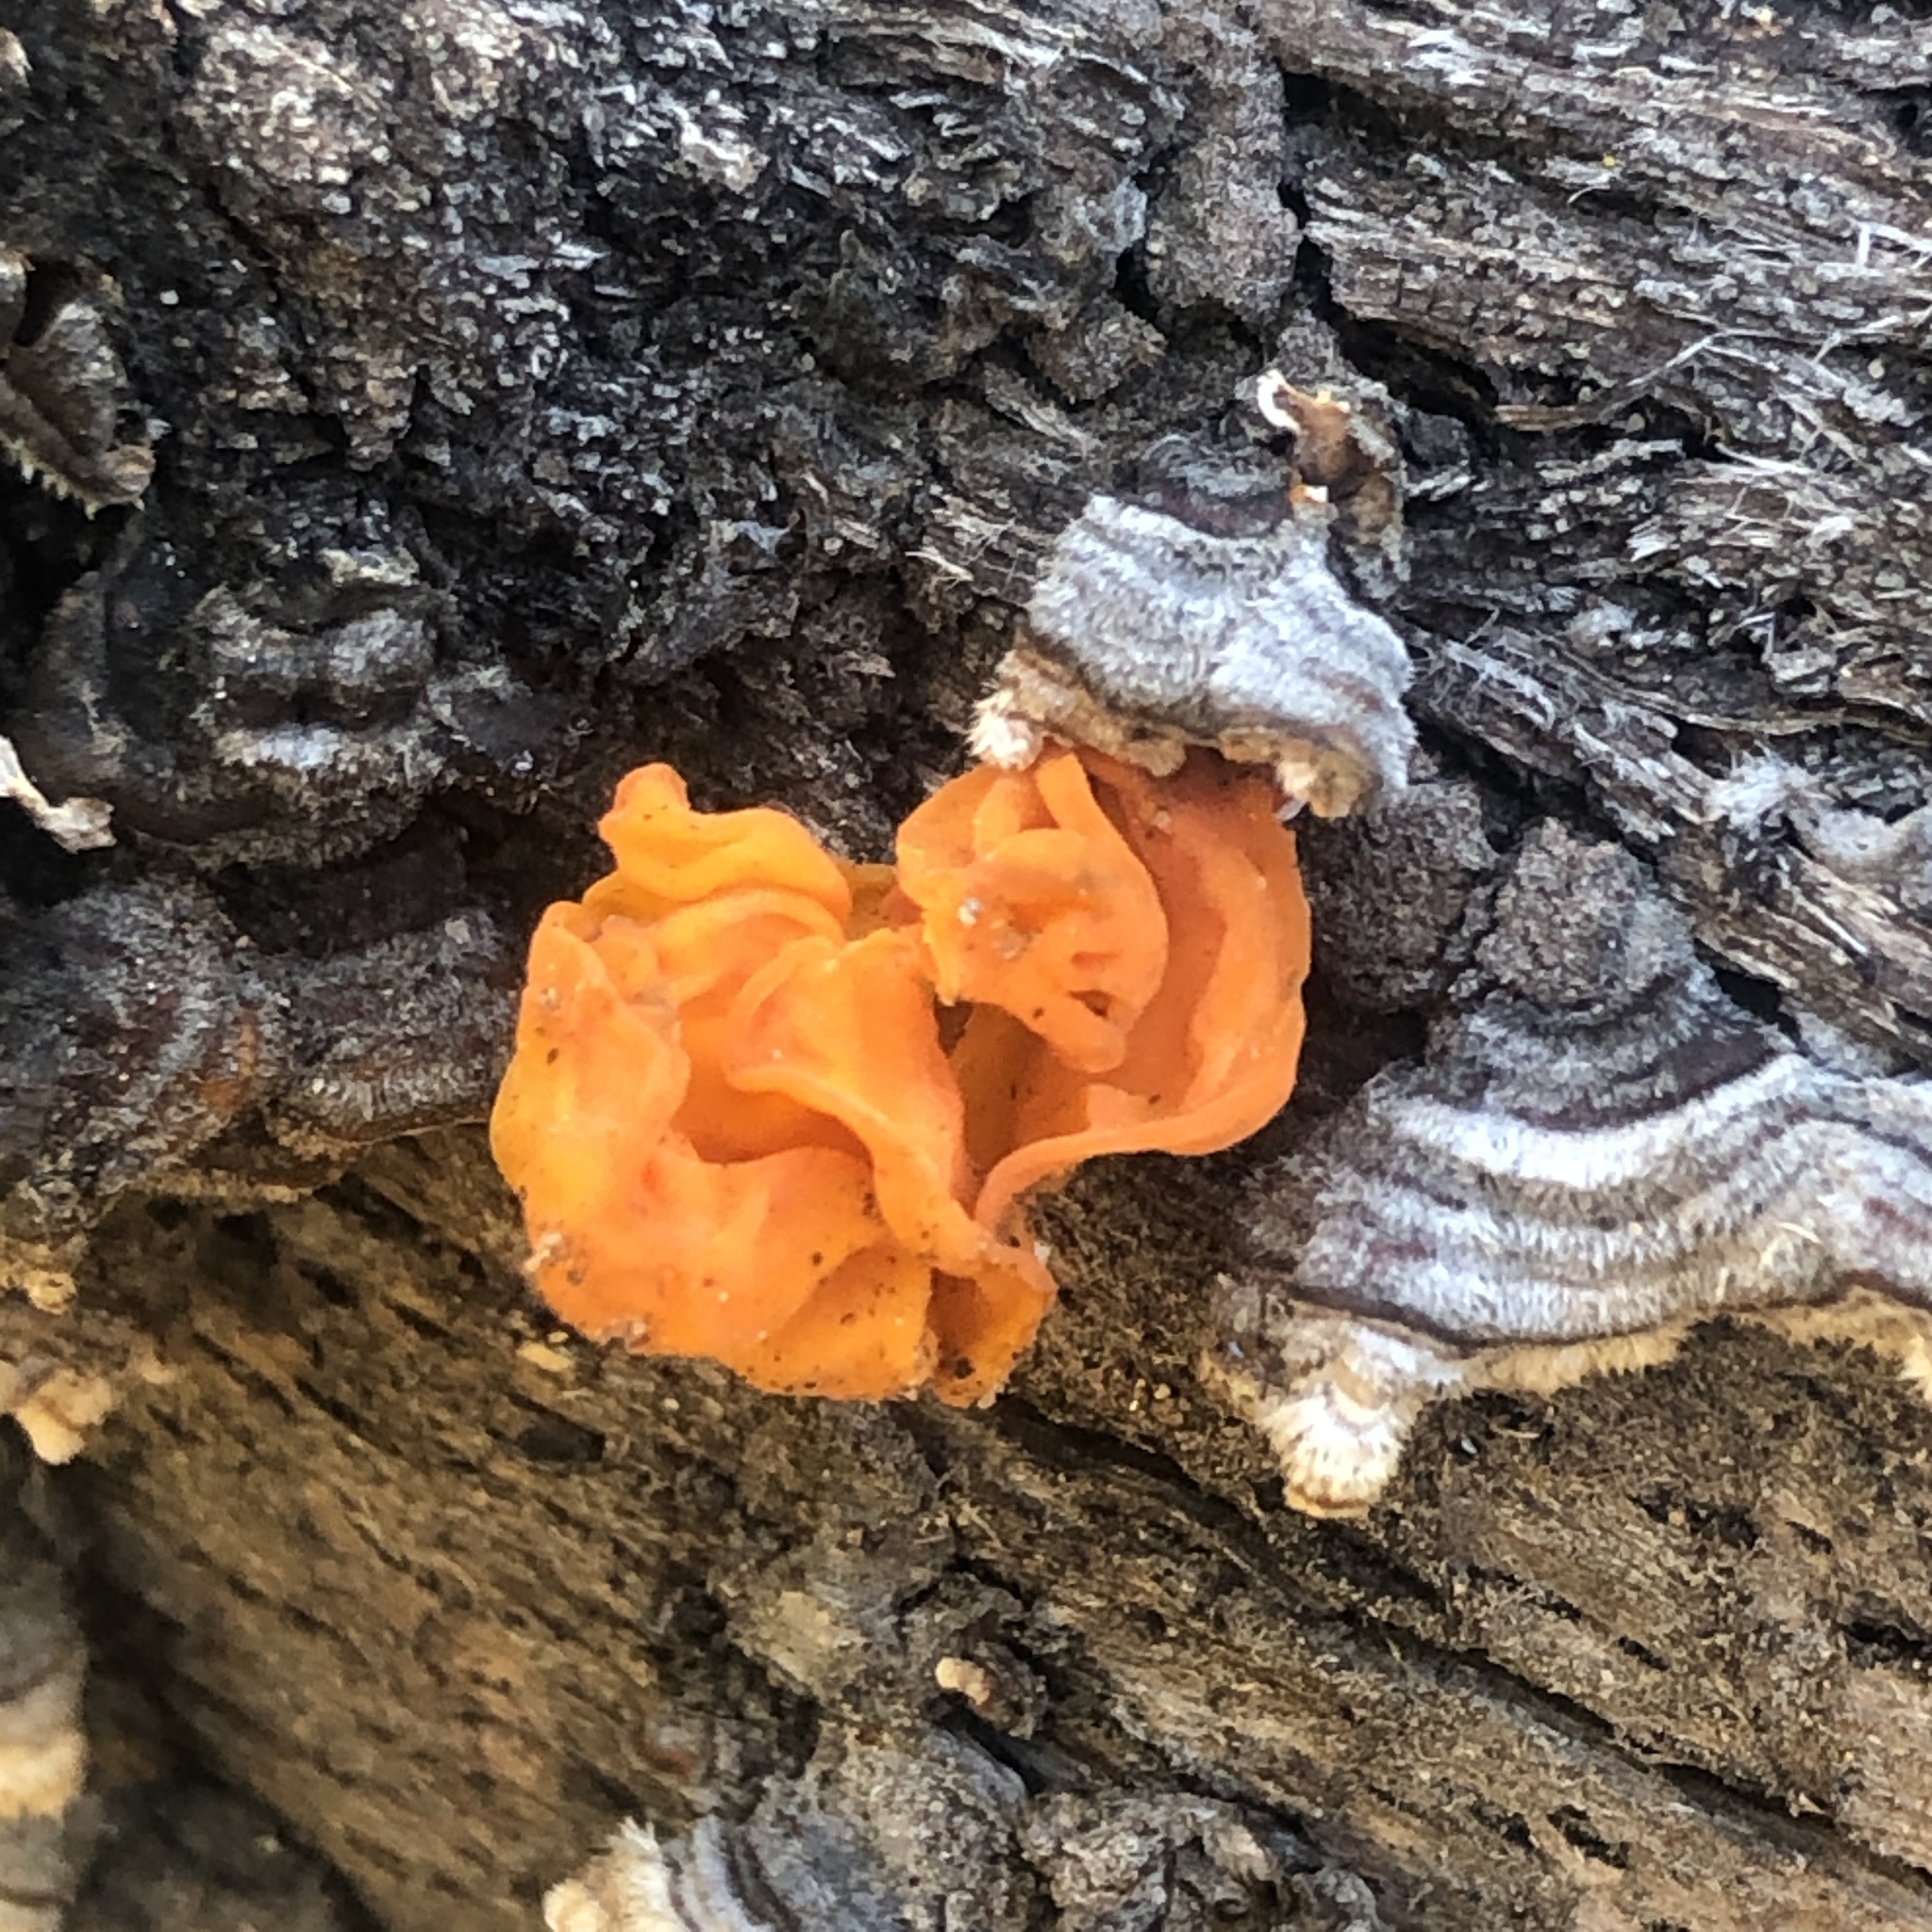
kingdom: Fungi
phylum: Basidiomycota
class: Tremellomycetes
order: Tremellales
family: Naemateliaceae
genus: Naematelia
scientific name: Naematelia aurantia
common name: Golden ear
